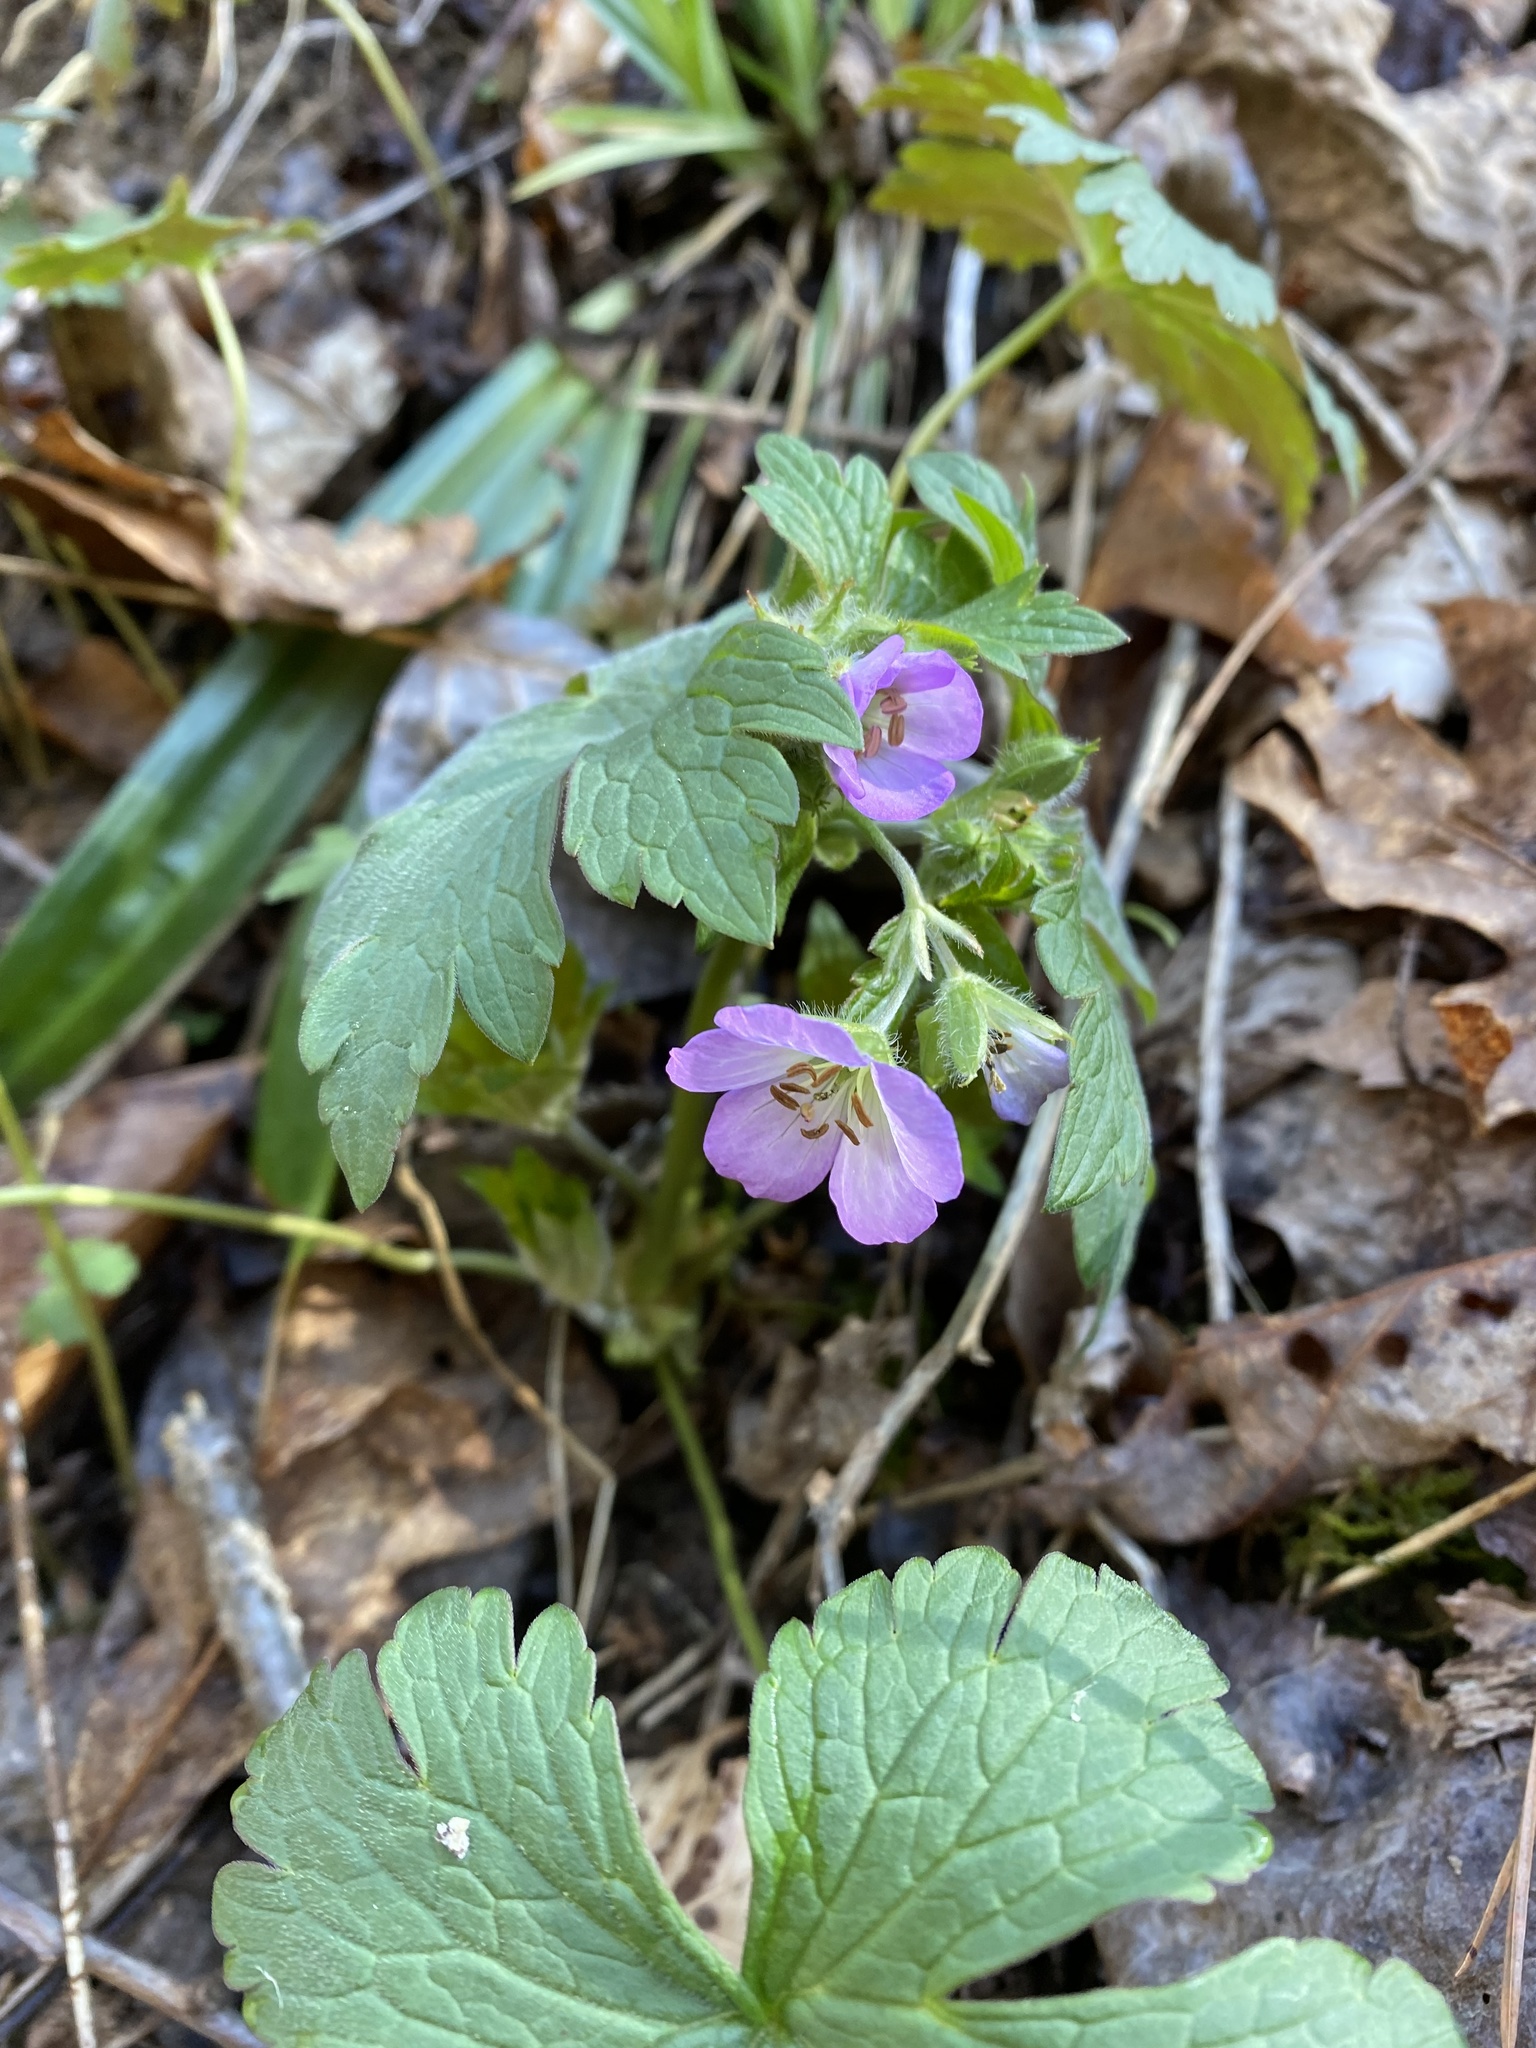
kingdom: Plantae
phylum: Tracheophyta
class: Magnoliopsida
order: Geraniales
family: Geraniaceae
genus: Geranium
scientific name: Geranium maculatum
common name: Spotted geranium
